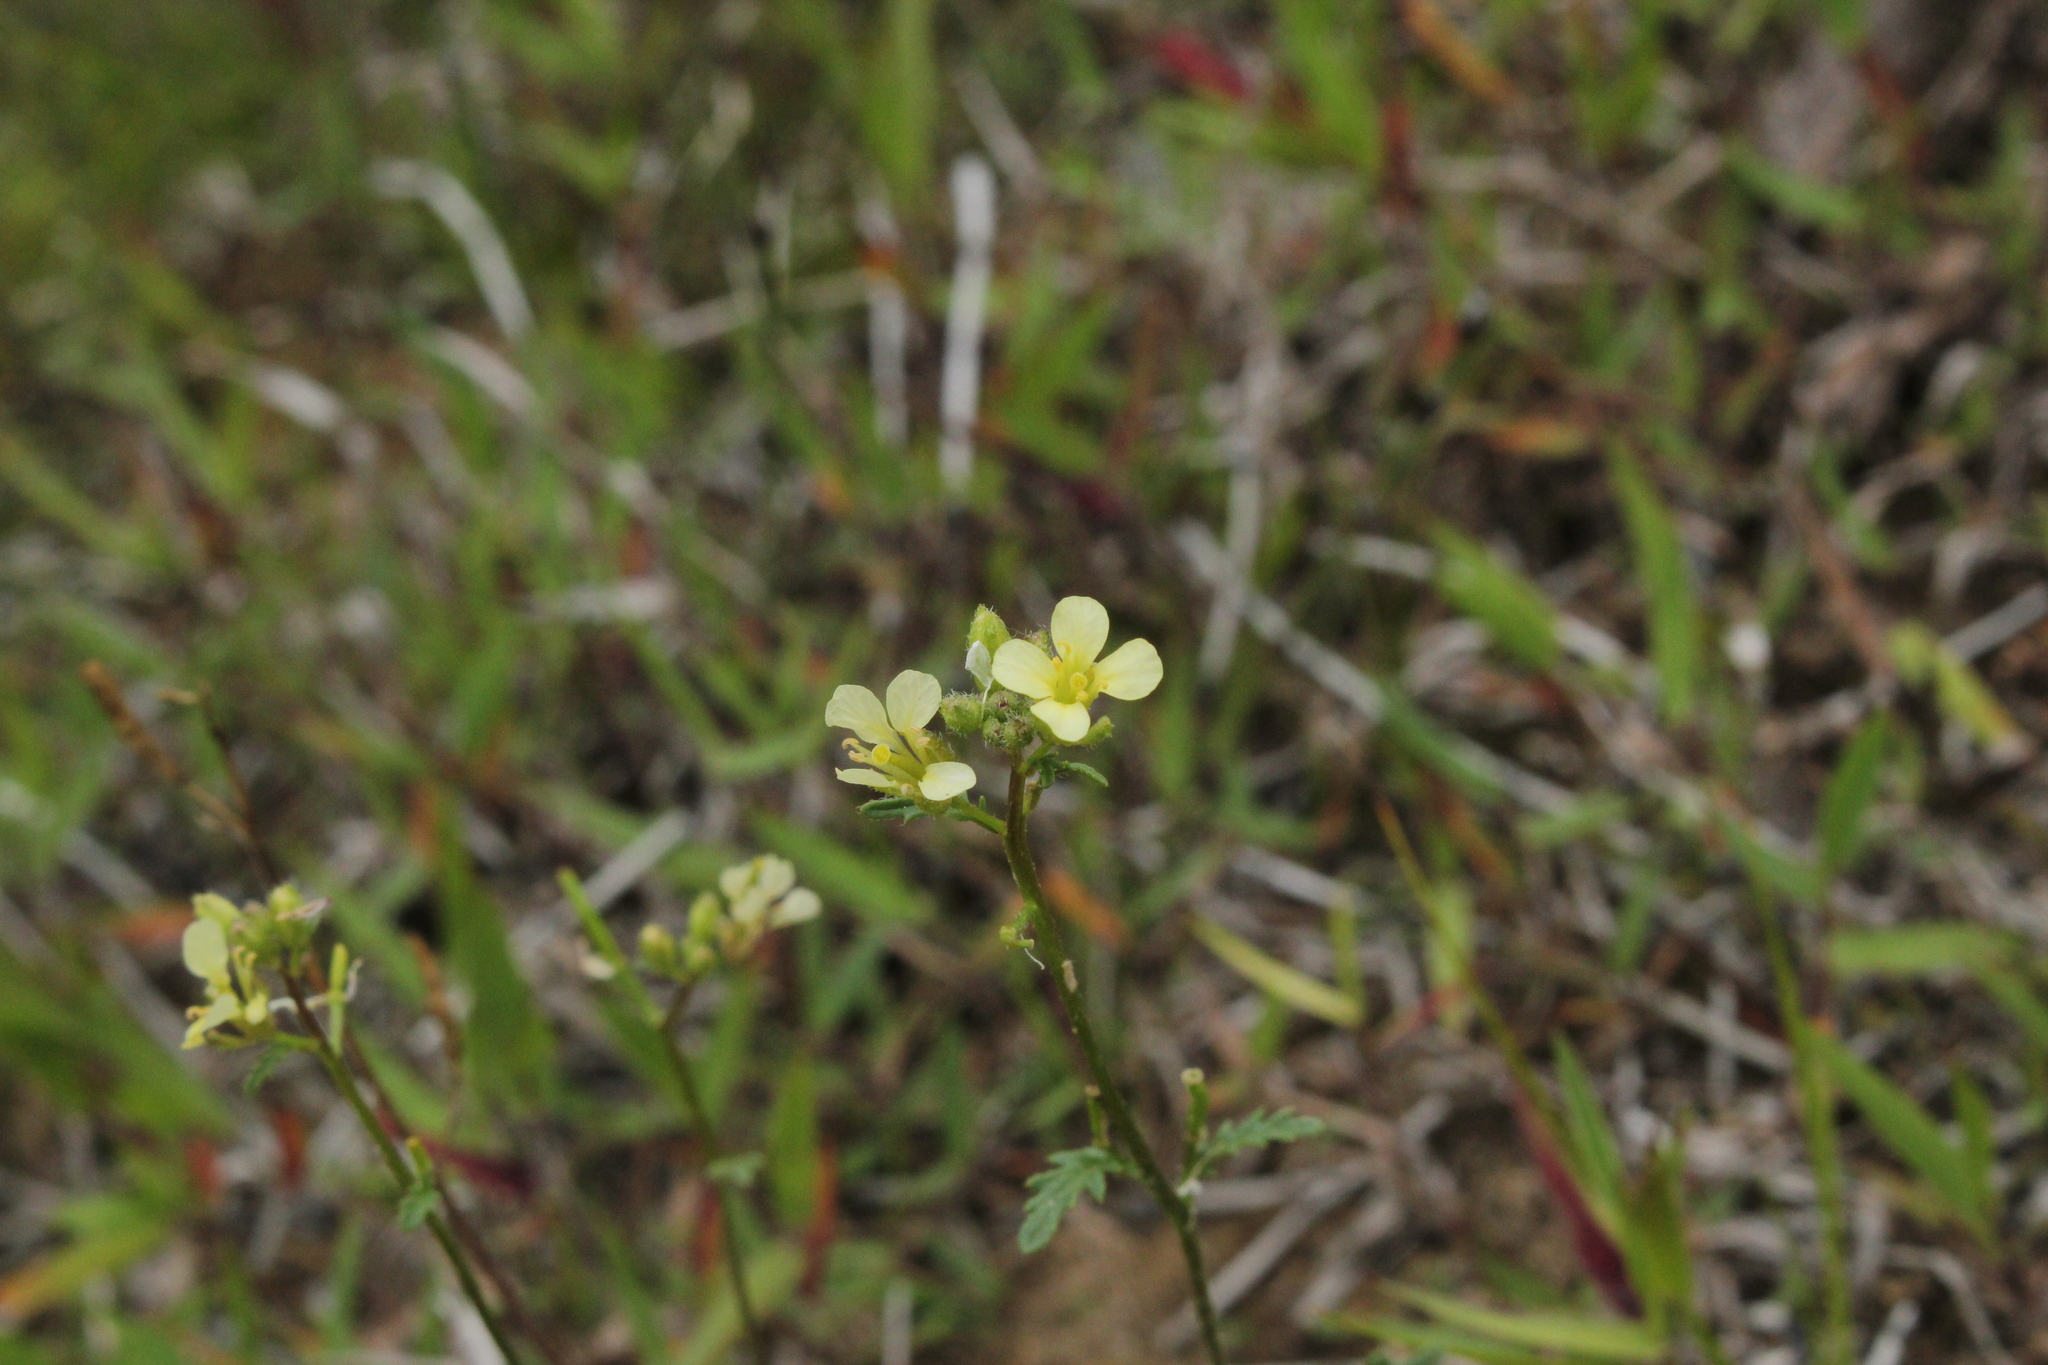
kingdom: Plantae
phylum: Tracheophyta
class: Magnoliopsida
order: Brassicales
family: Brassicaceae
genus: Erucastrum
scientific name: Erucastrum gallicum
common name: Hairy rocket
